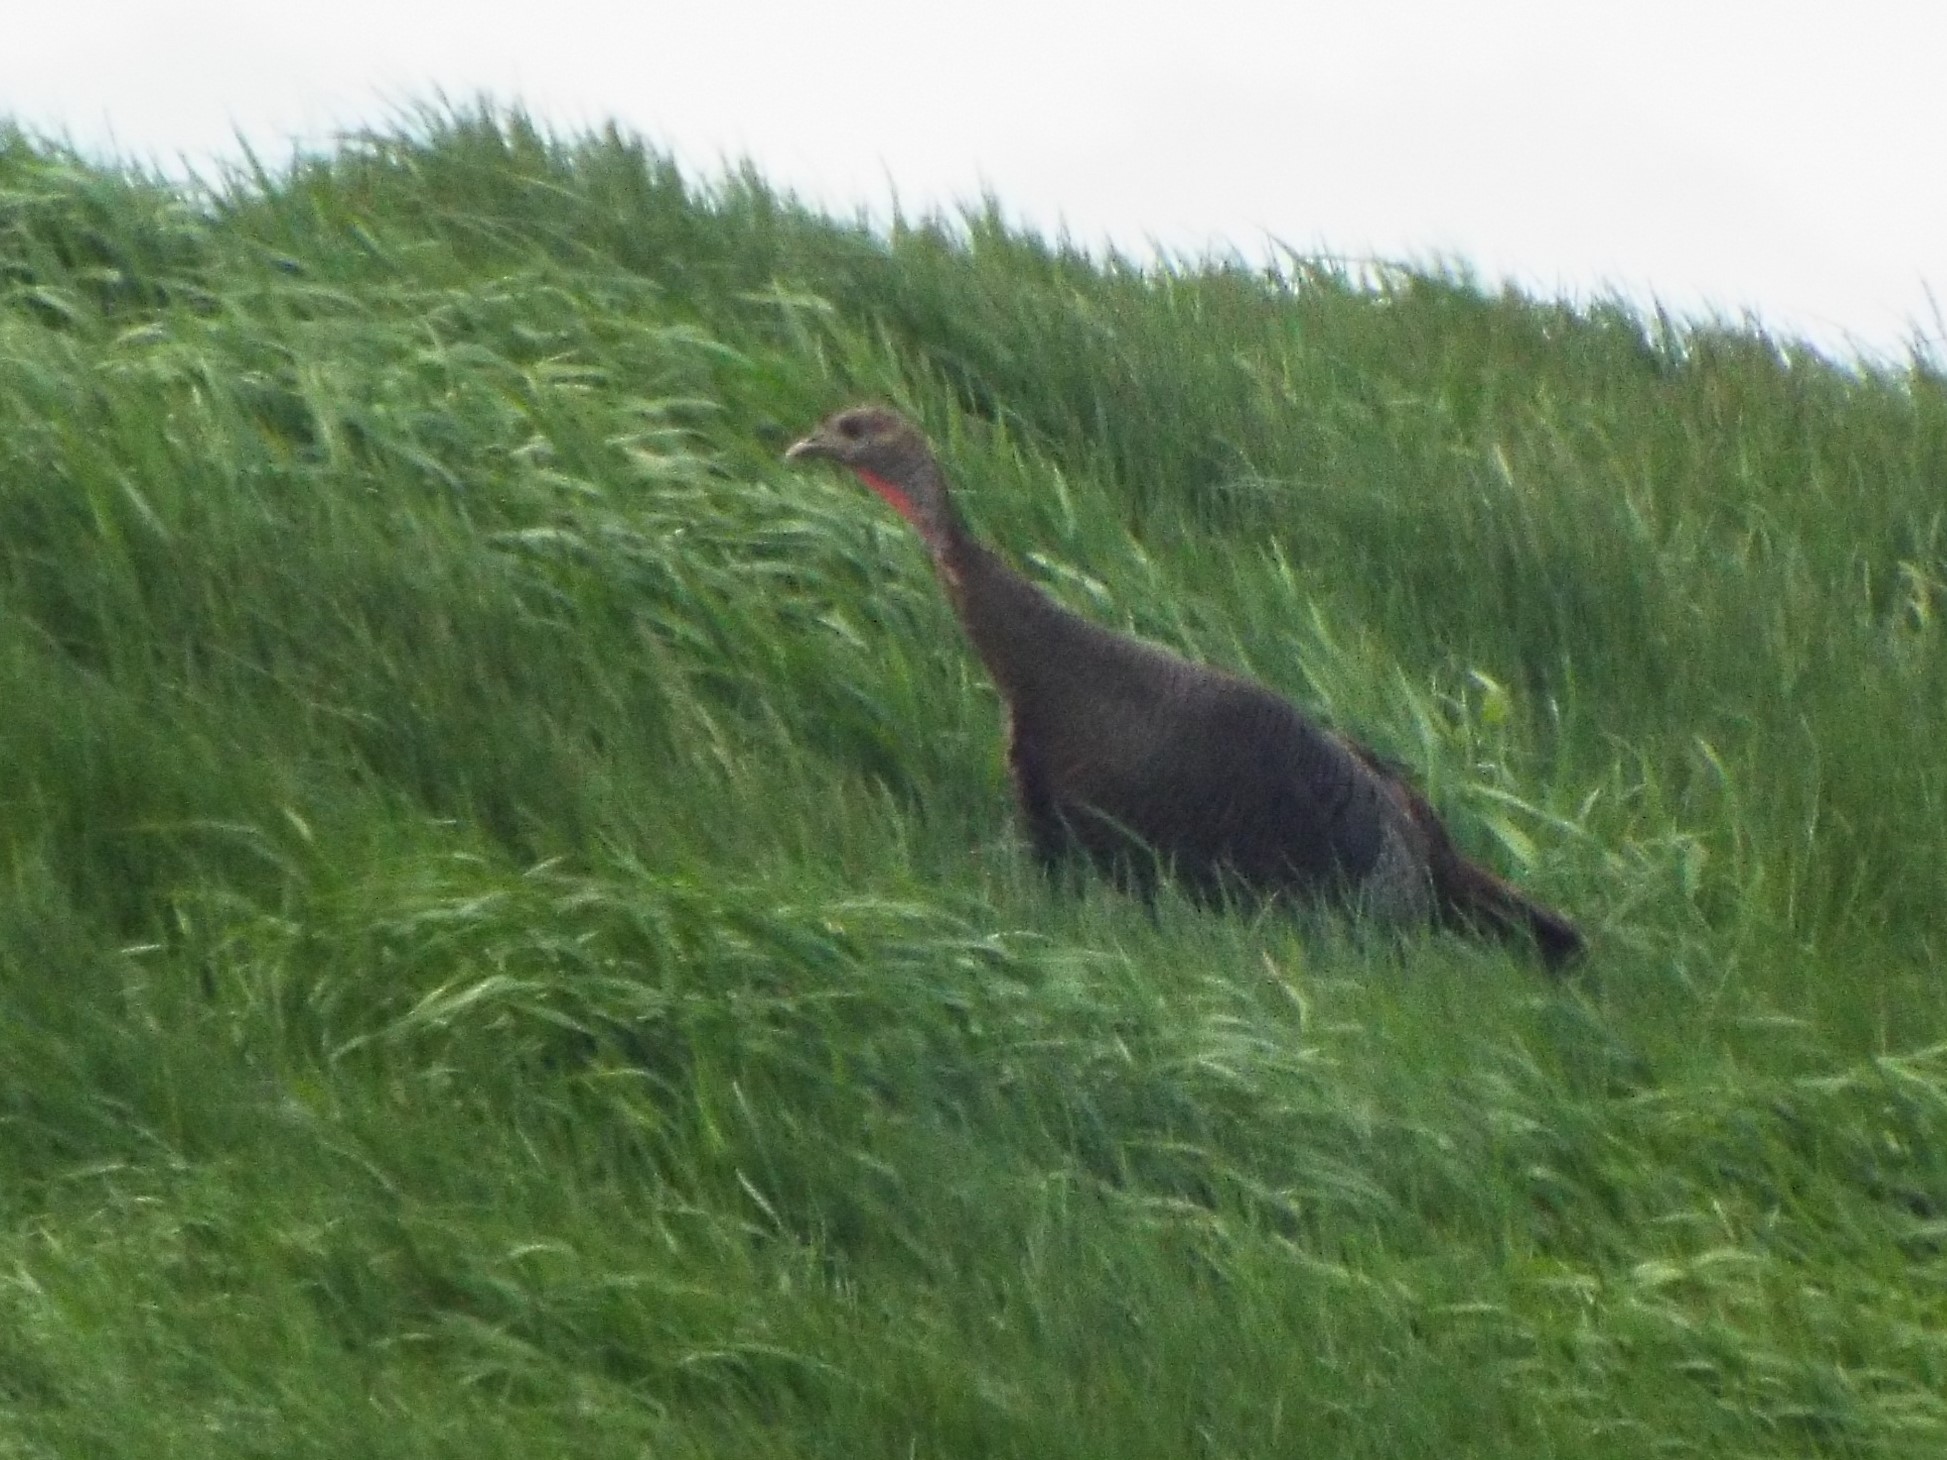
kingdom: Animalia
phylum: Chordata
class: Aves
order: Galliformes
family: Phasianidae
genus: Meleagris
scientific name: Meleagris gallopavo
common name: Wild turkey
